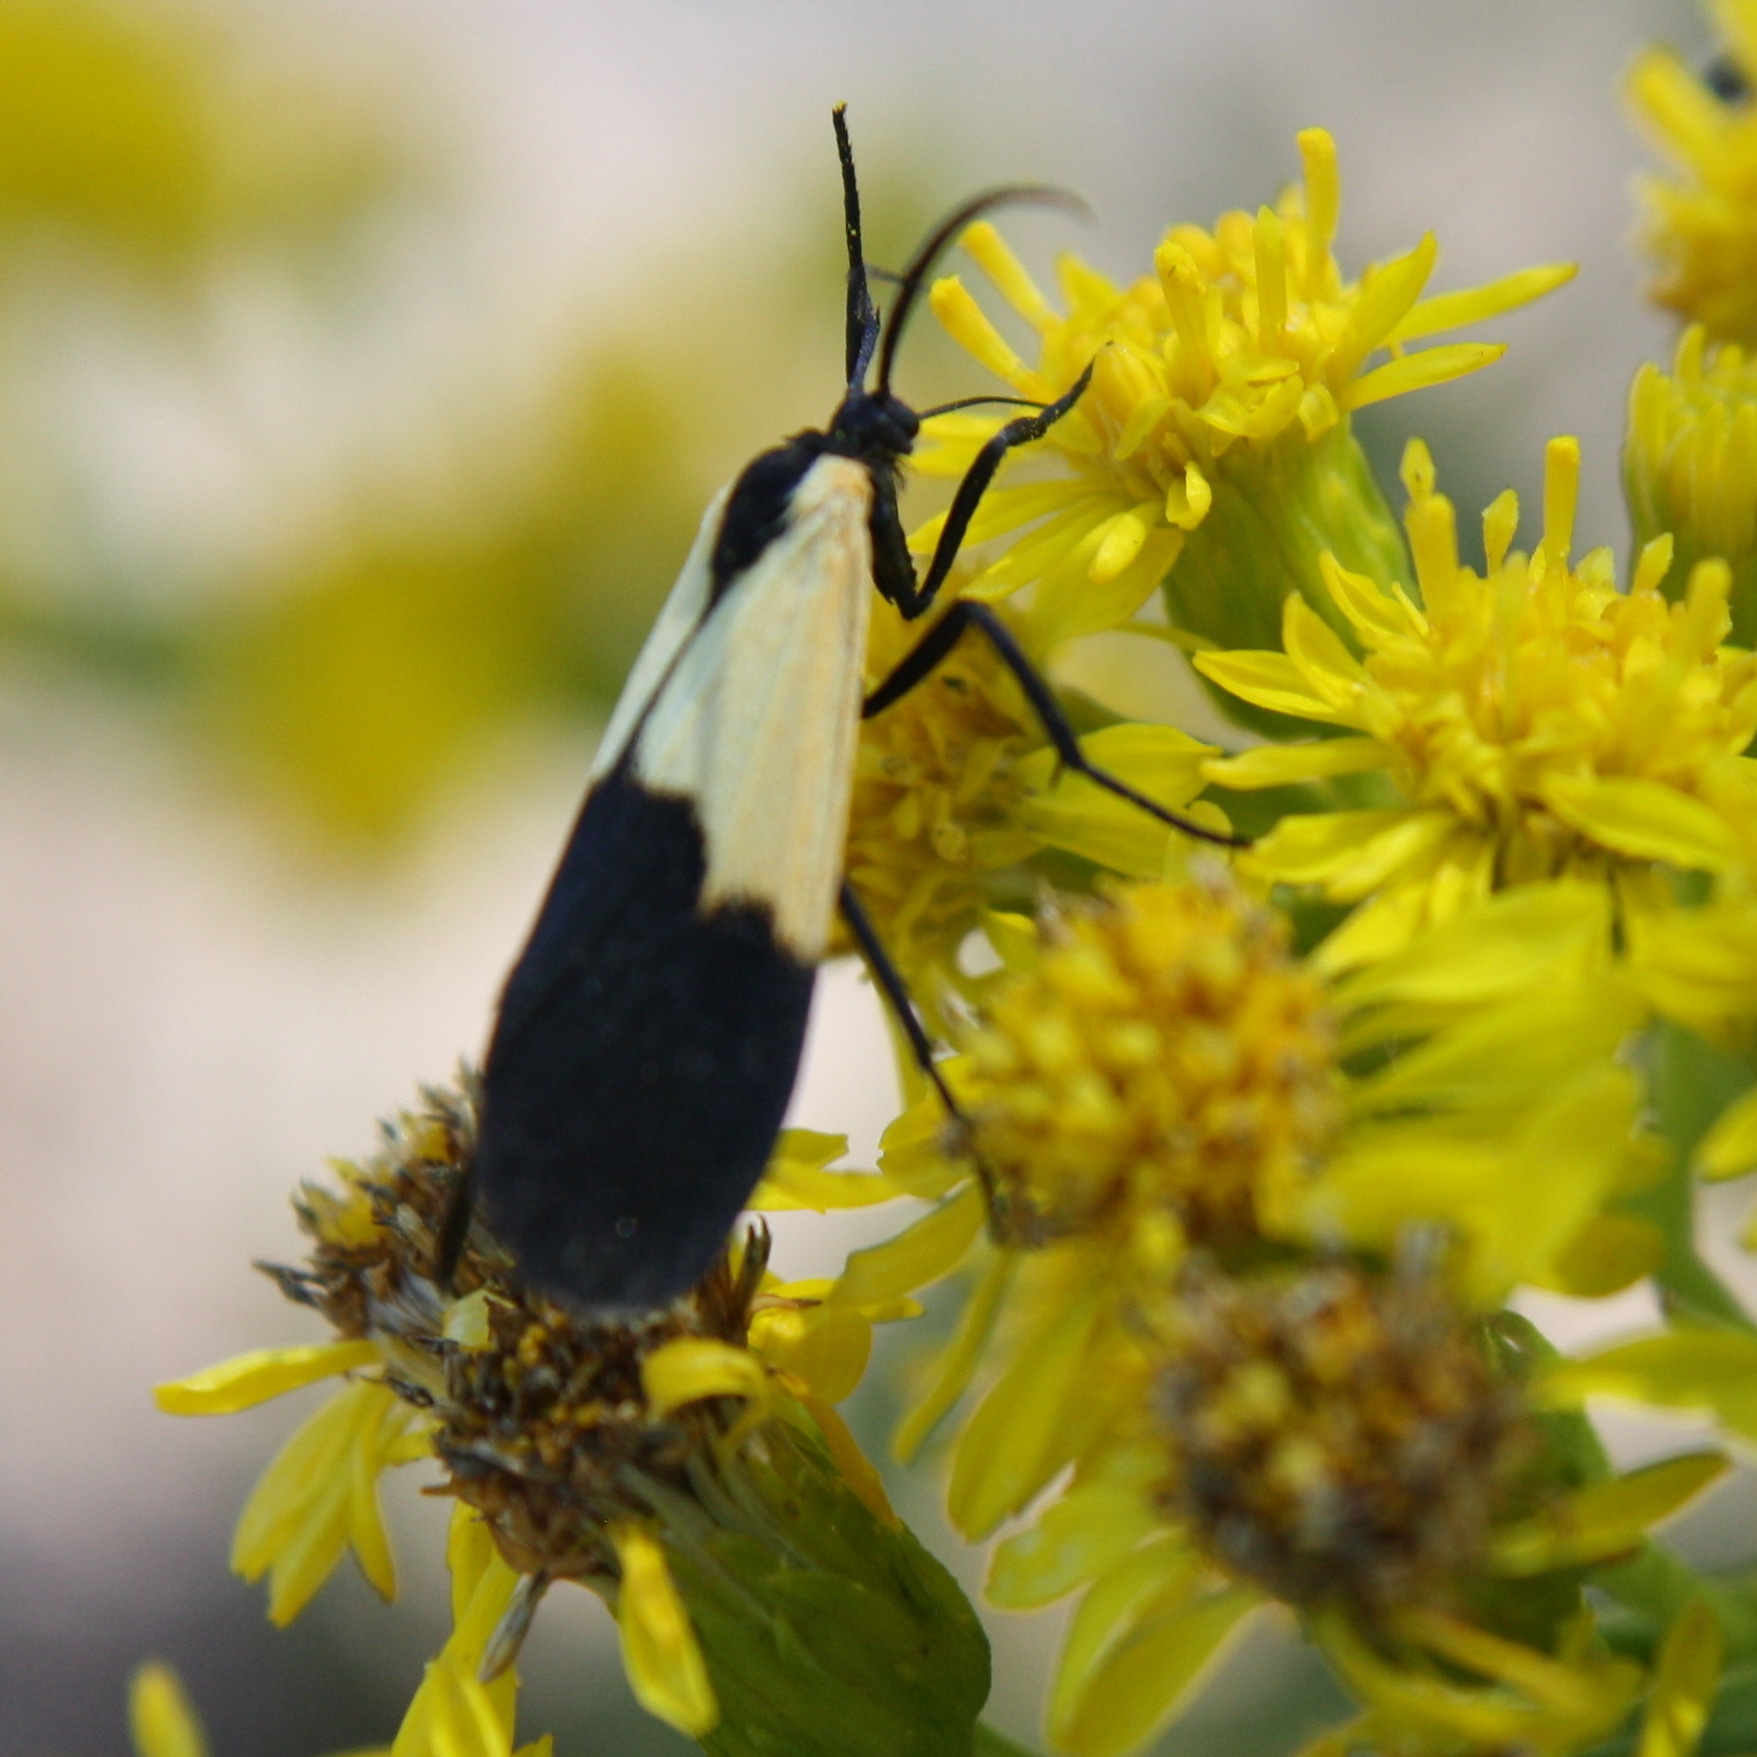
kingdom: Animalia
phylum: Arthropoda
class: Insecta
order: Lepidoptera
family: Erebidae
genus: Lycomorpha
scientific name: Lycomorpha pholus
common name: Black-and-yellow lichen moth
